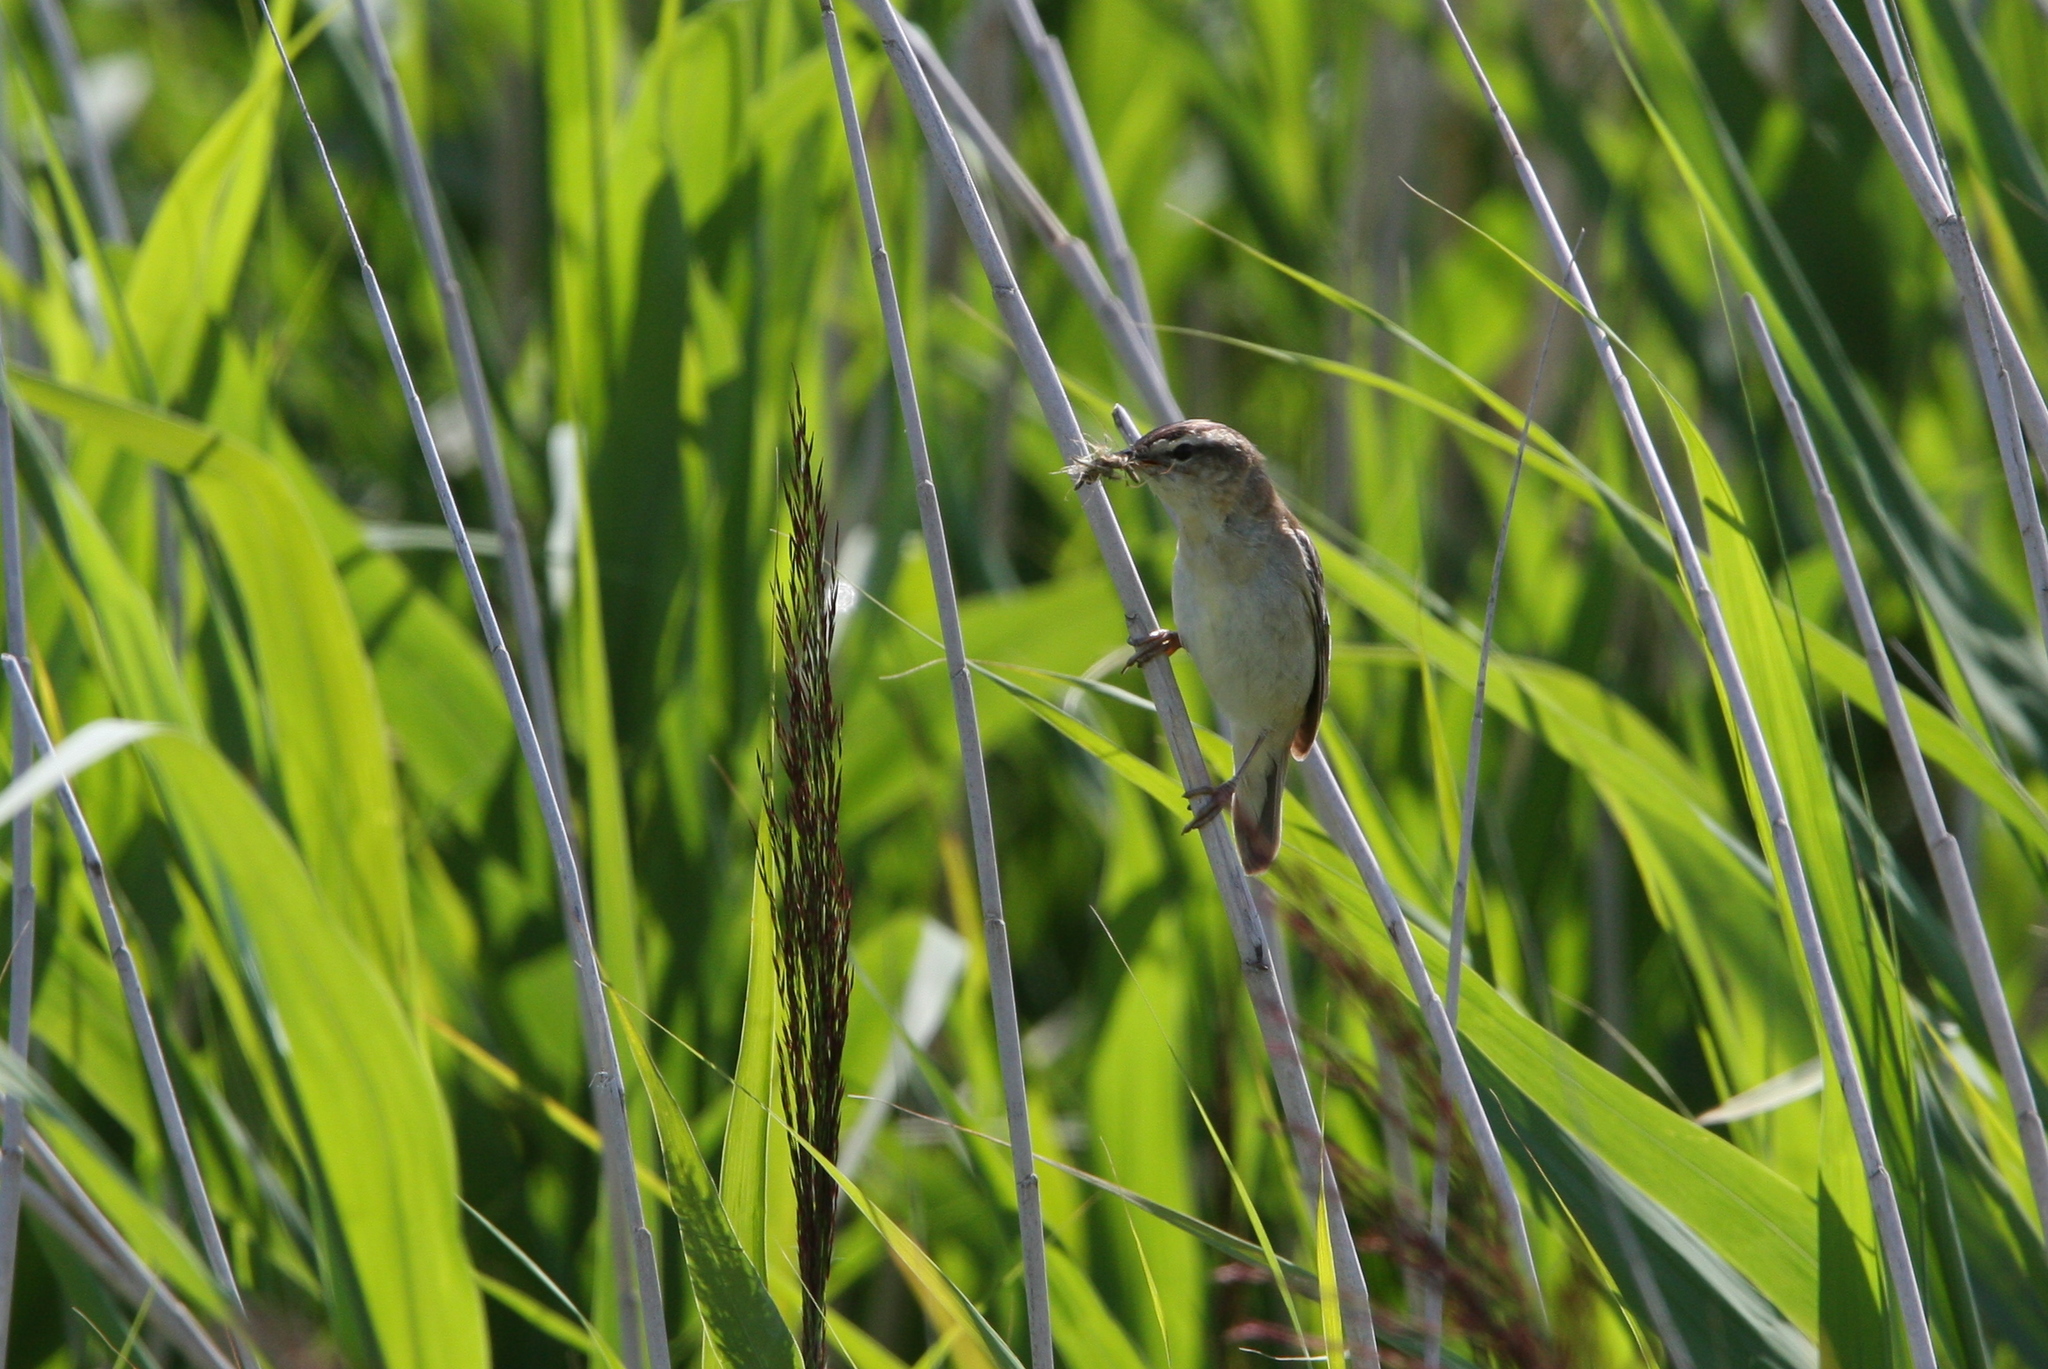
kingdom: Animalia
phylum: Chordata
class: Aves
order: Passeriformes
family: Acrocephalidae
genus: Acrocephalus
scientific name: Acrocephalus schoenobaenus
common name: Sedge warbler
